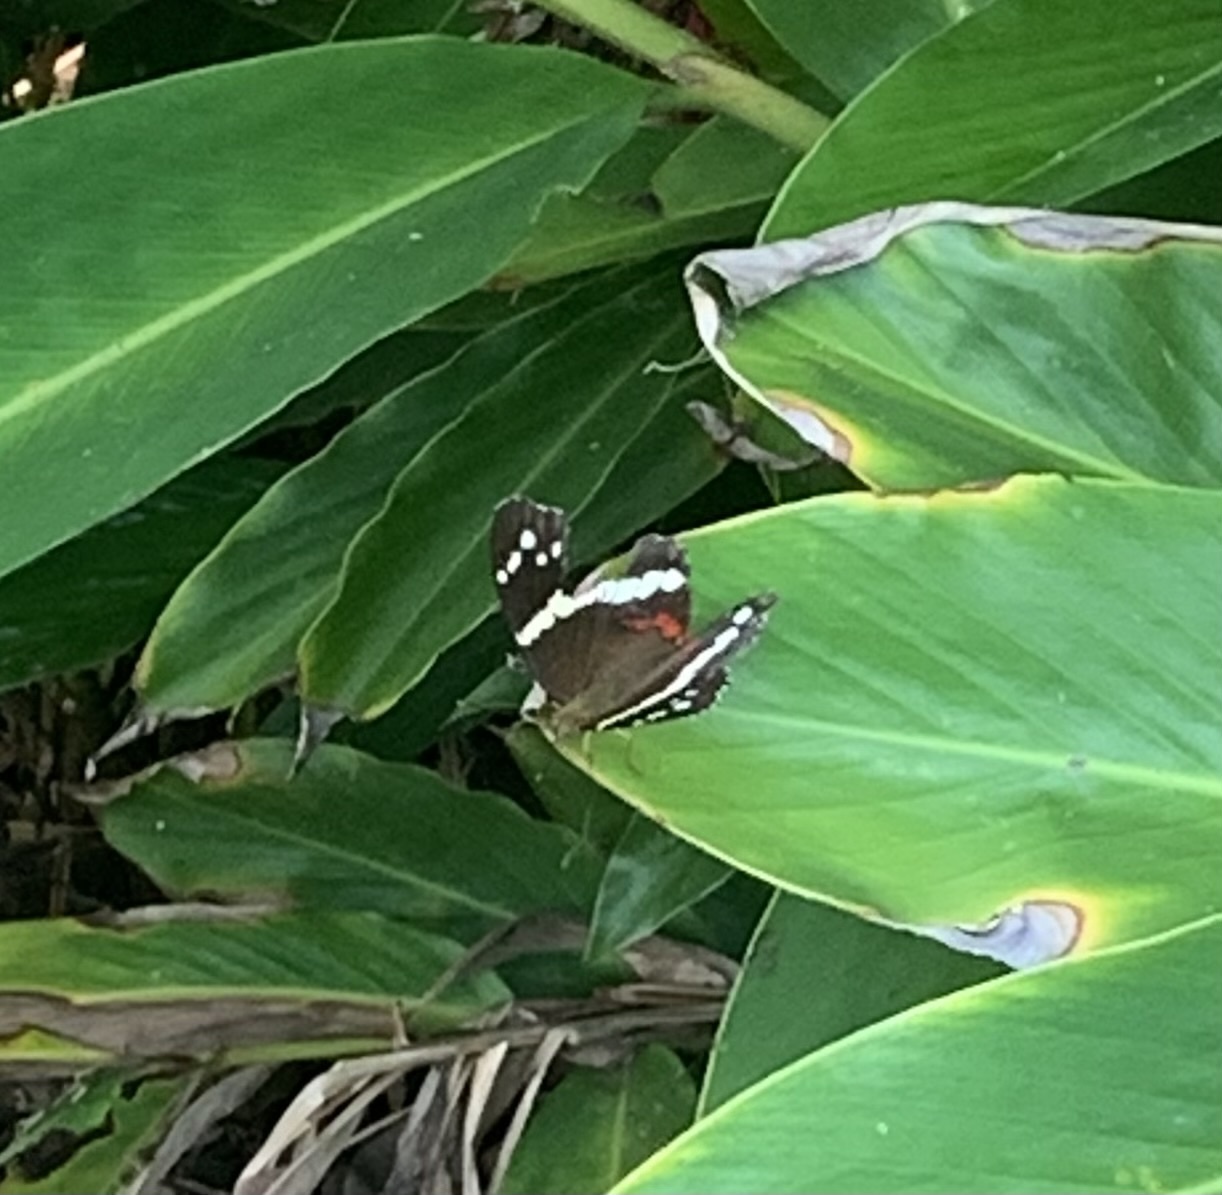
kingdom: Animalia
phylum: Arthropoda
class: Insecta
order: Lepidoptera
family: Nymphalidae
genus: Anartia
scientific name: Anartia fatima
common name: Banded peacock
